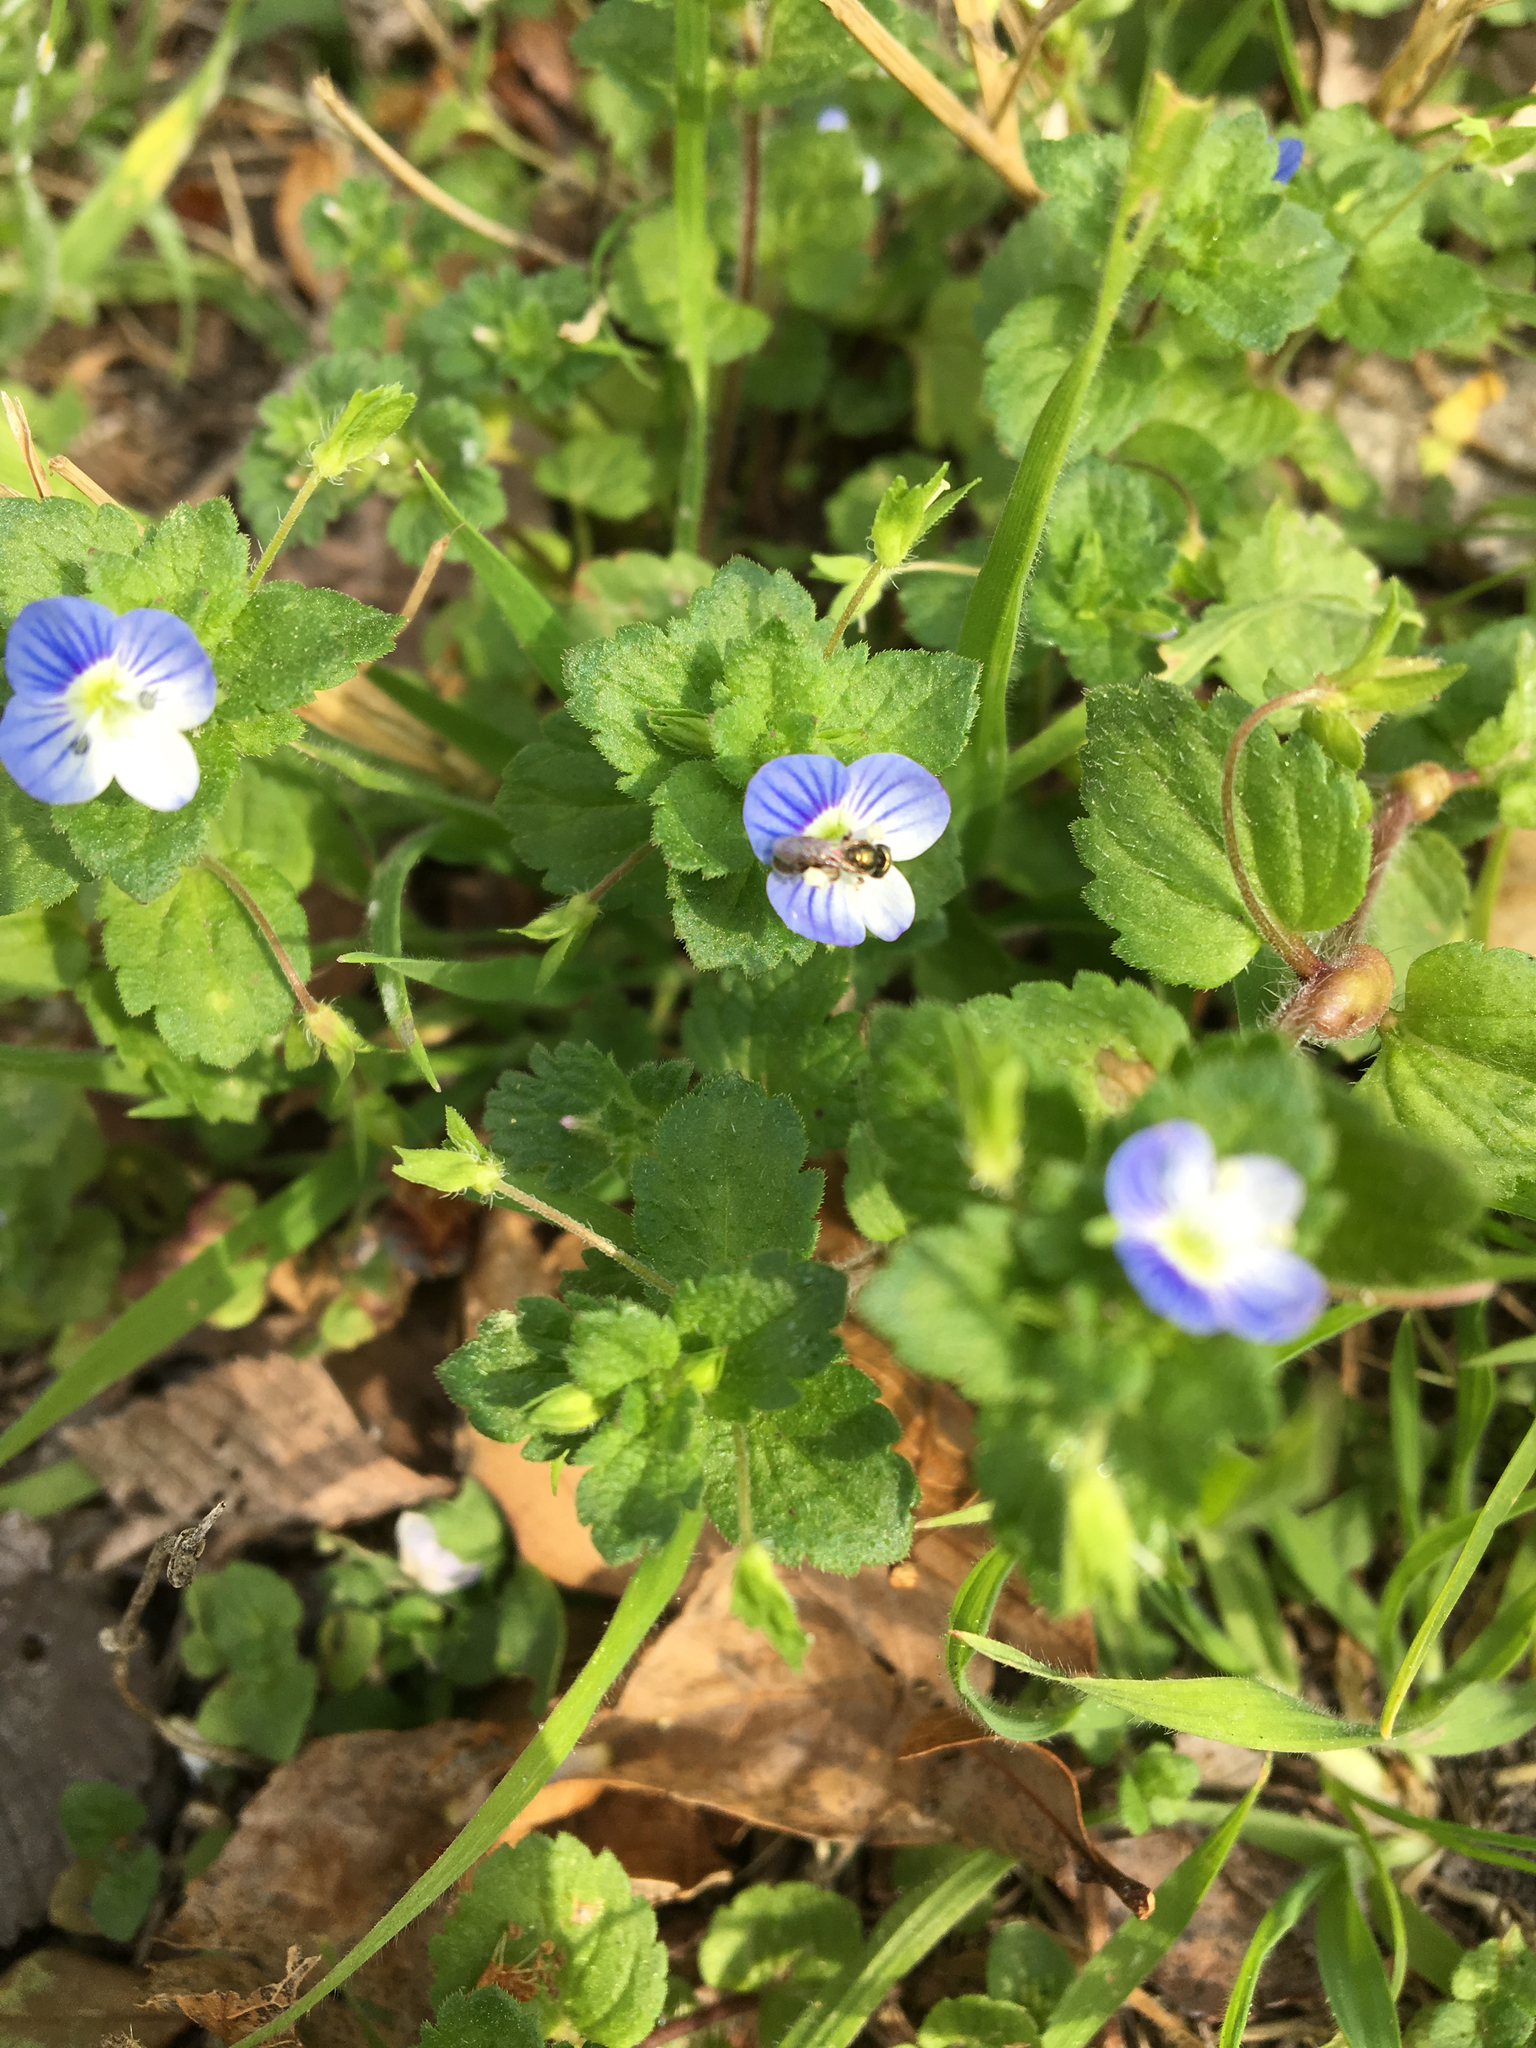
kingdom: Plantae
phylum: Tracheophyta
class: Magnoliopsida
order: Lamiales
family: Plantaginaceae
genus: Veronica
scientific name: Veronica persica
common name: Common field-speedwell
